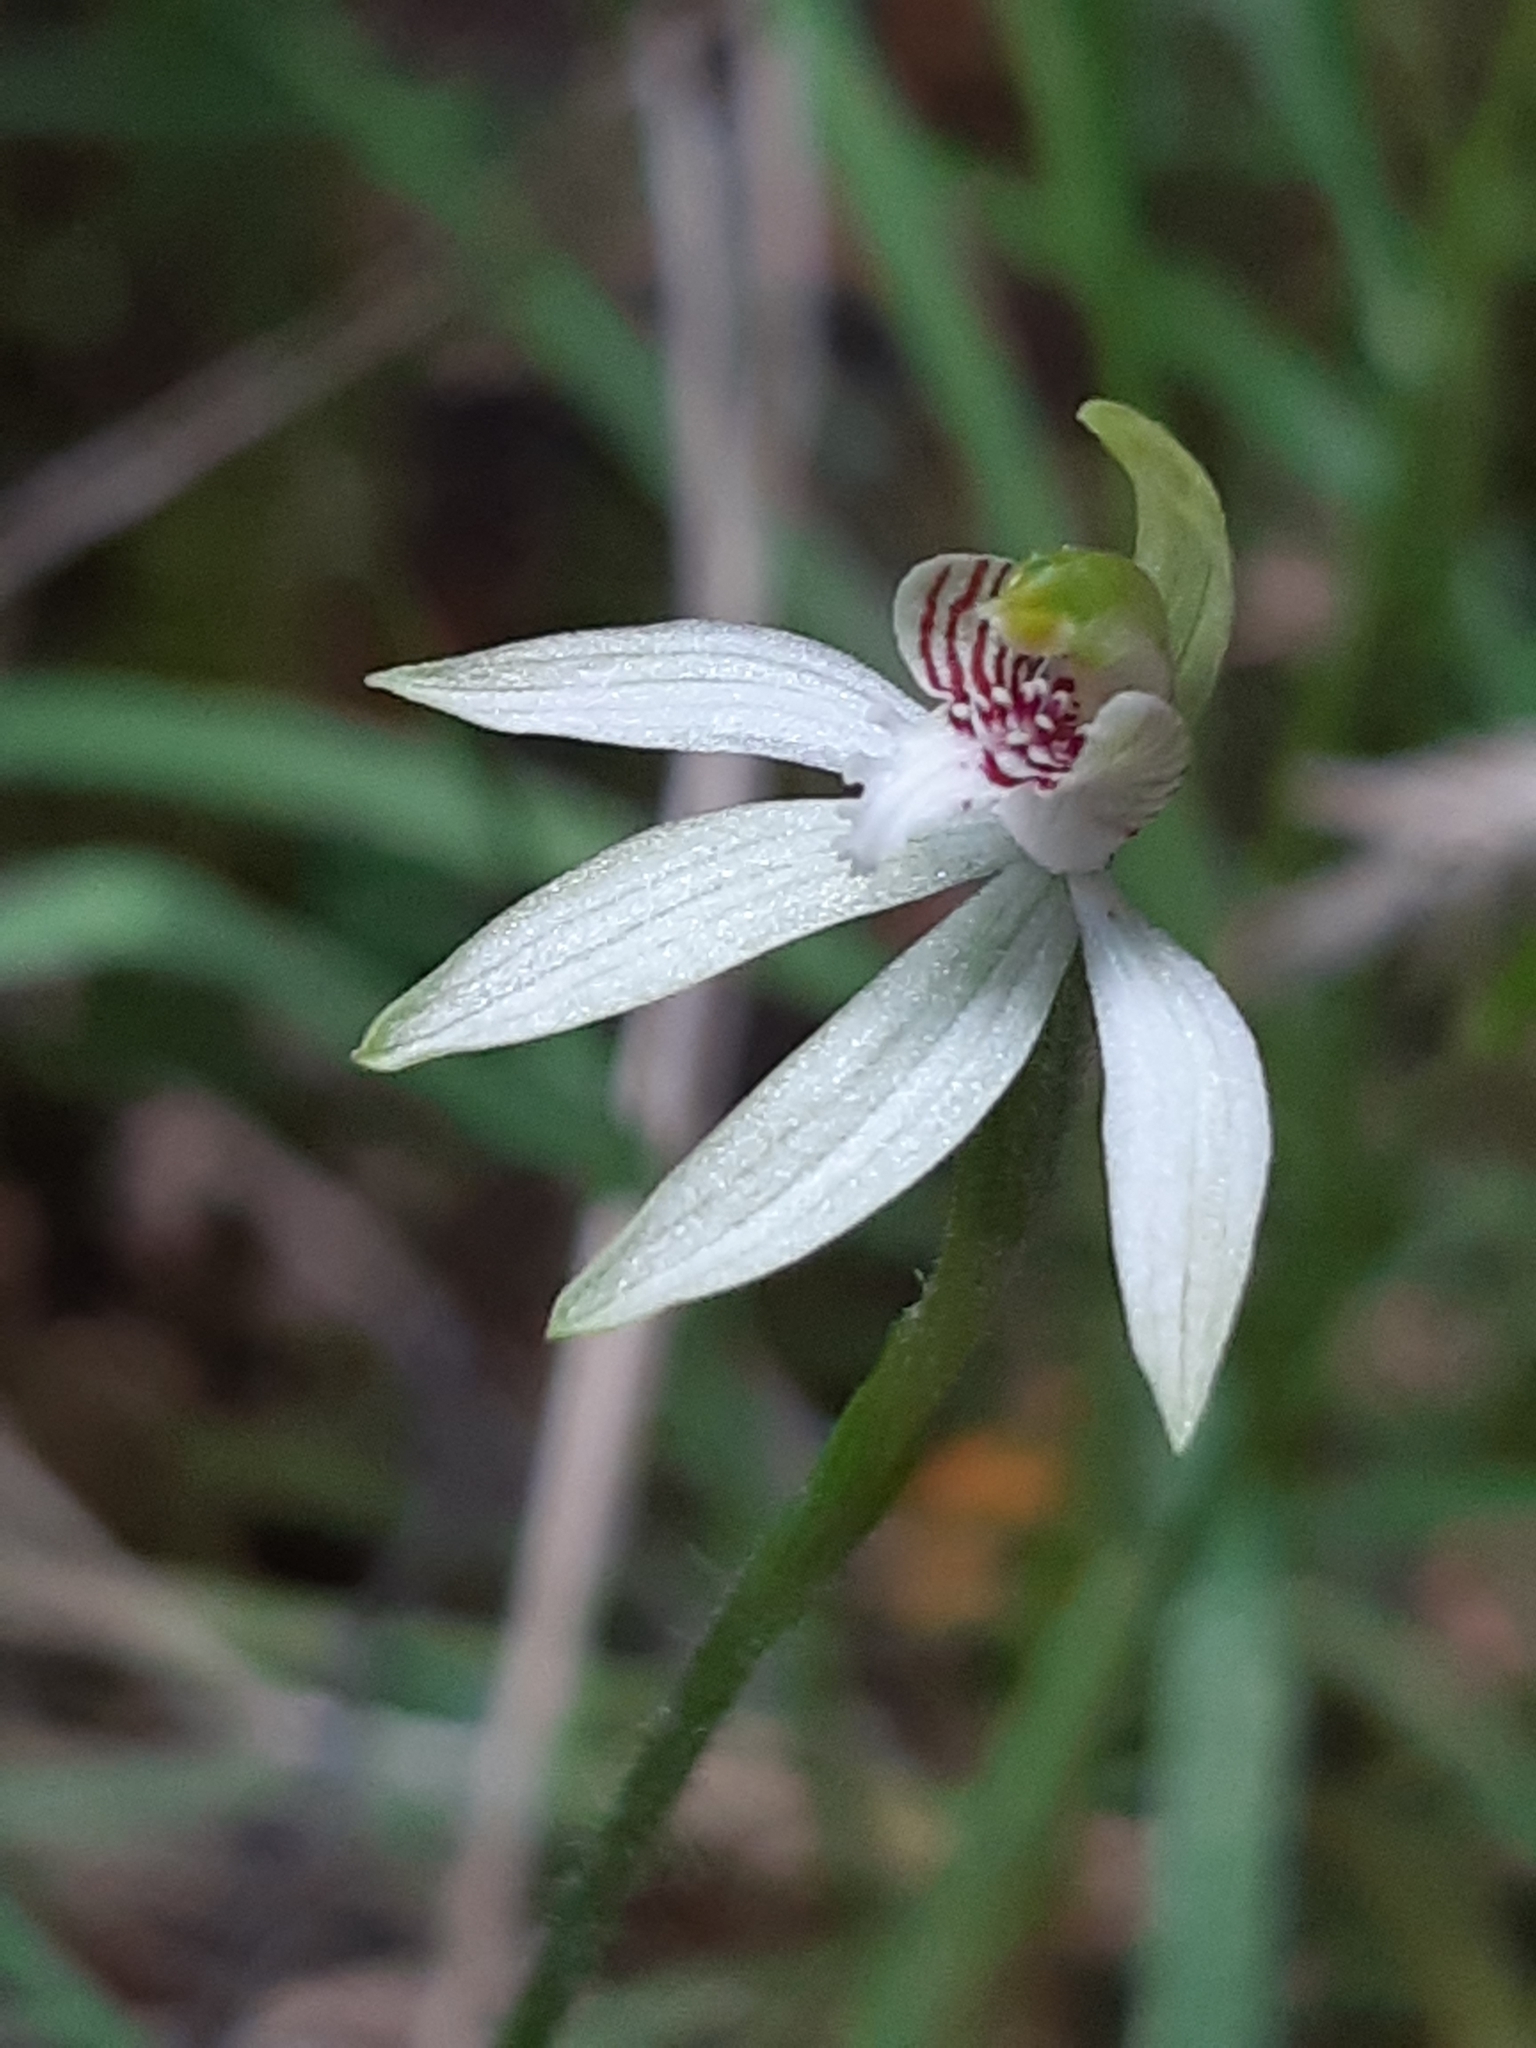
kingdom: Plantae
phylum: Tracheophyta
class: Liliopsida
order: Asparagales
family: Orchidaceae
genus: Caladenia
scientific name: Caladenia chlorostyla
